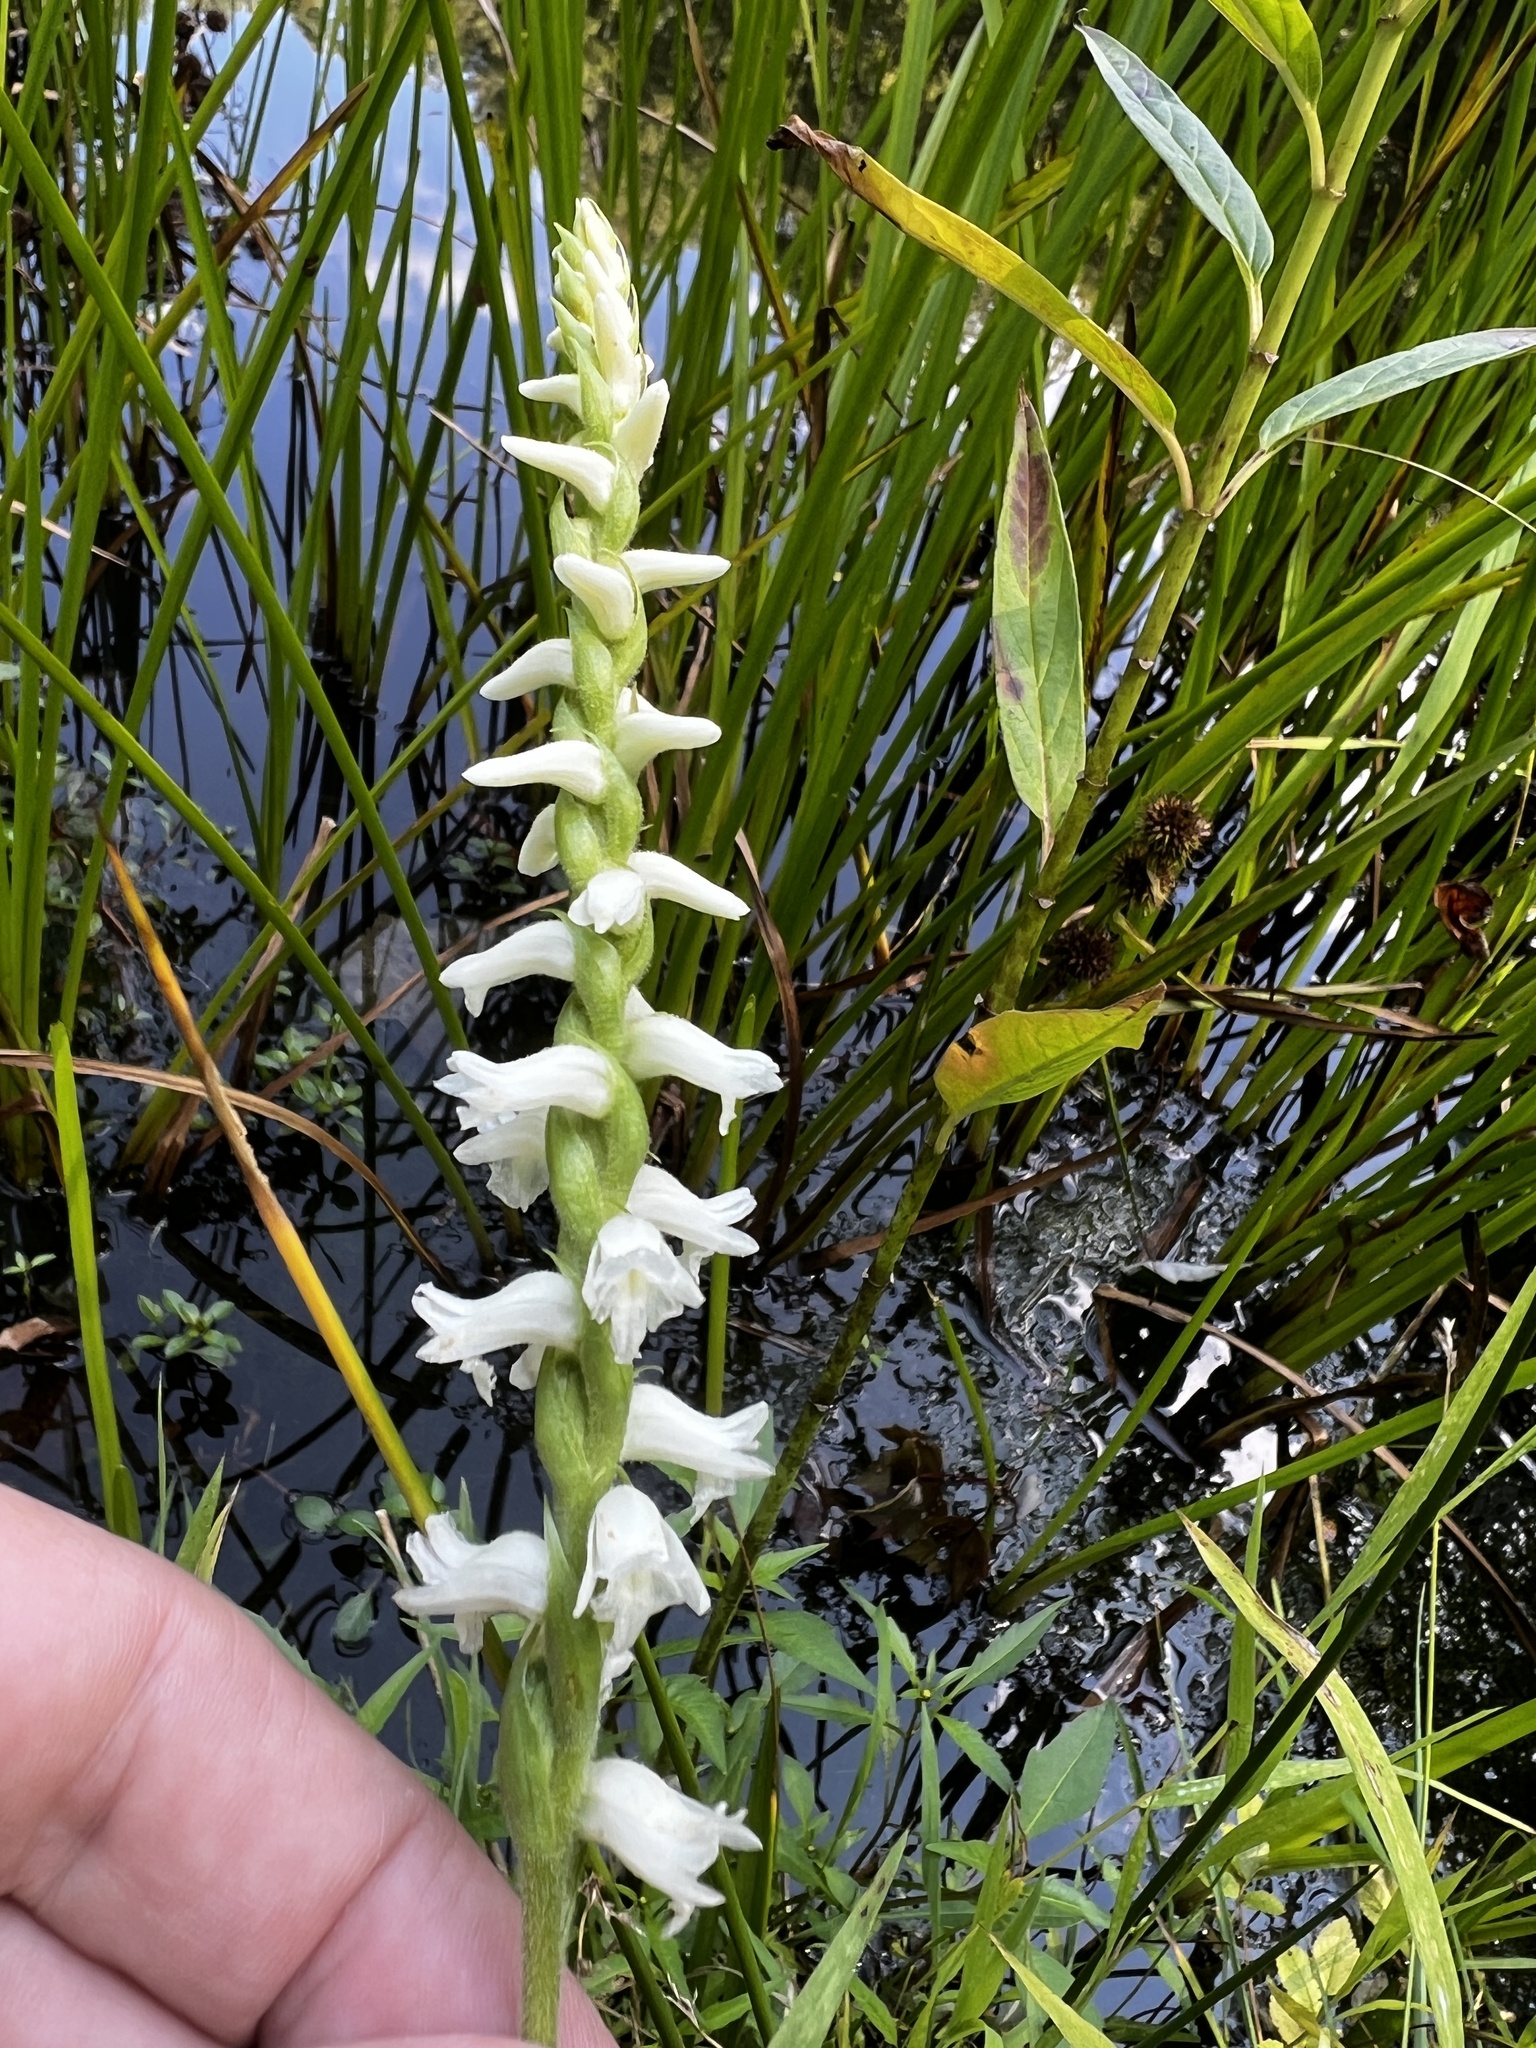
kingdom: Plantae
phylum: Tracheophyta
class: Liliopsida
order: Asparagales
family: Orchidaceae
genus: Spiranthes
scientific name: Spiranthes arcisepala
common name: Appalachian ladies'-tresses
